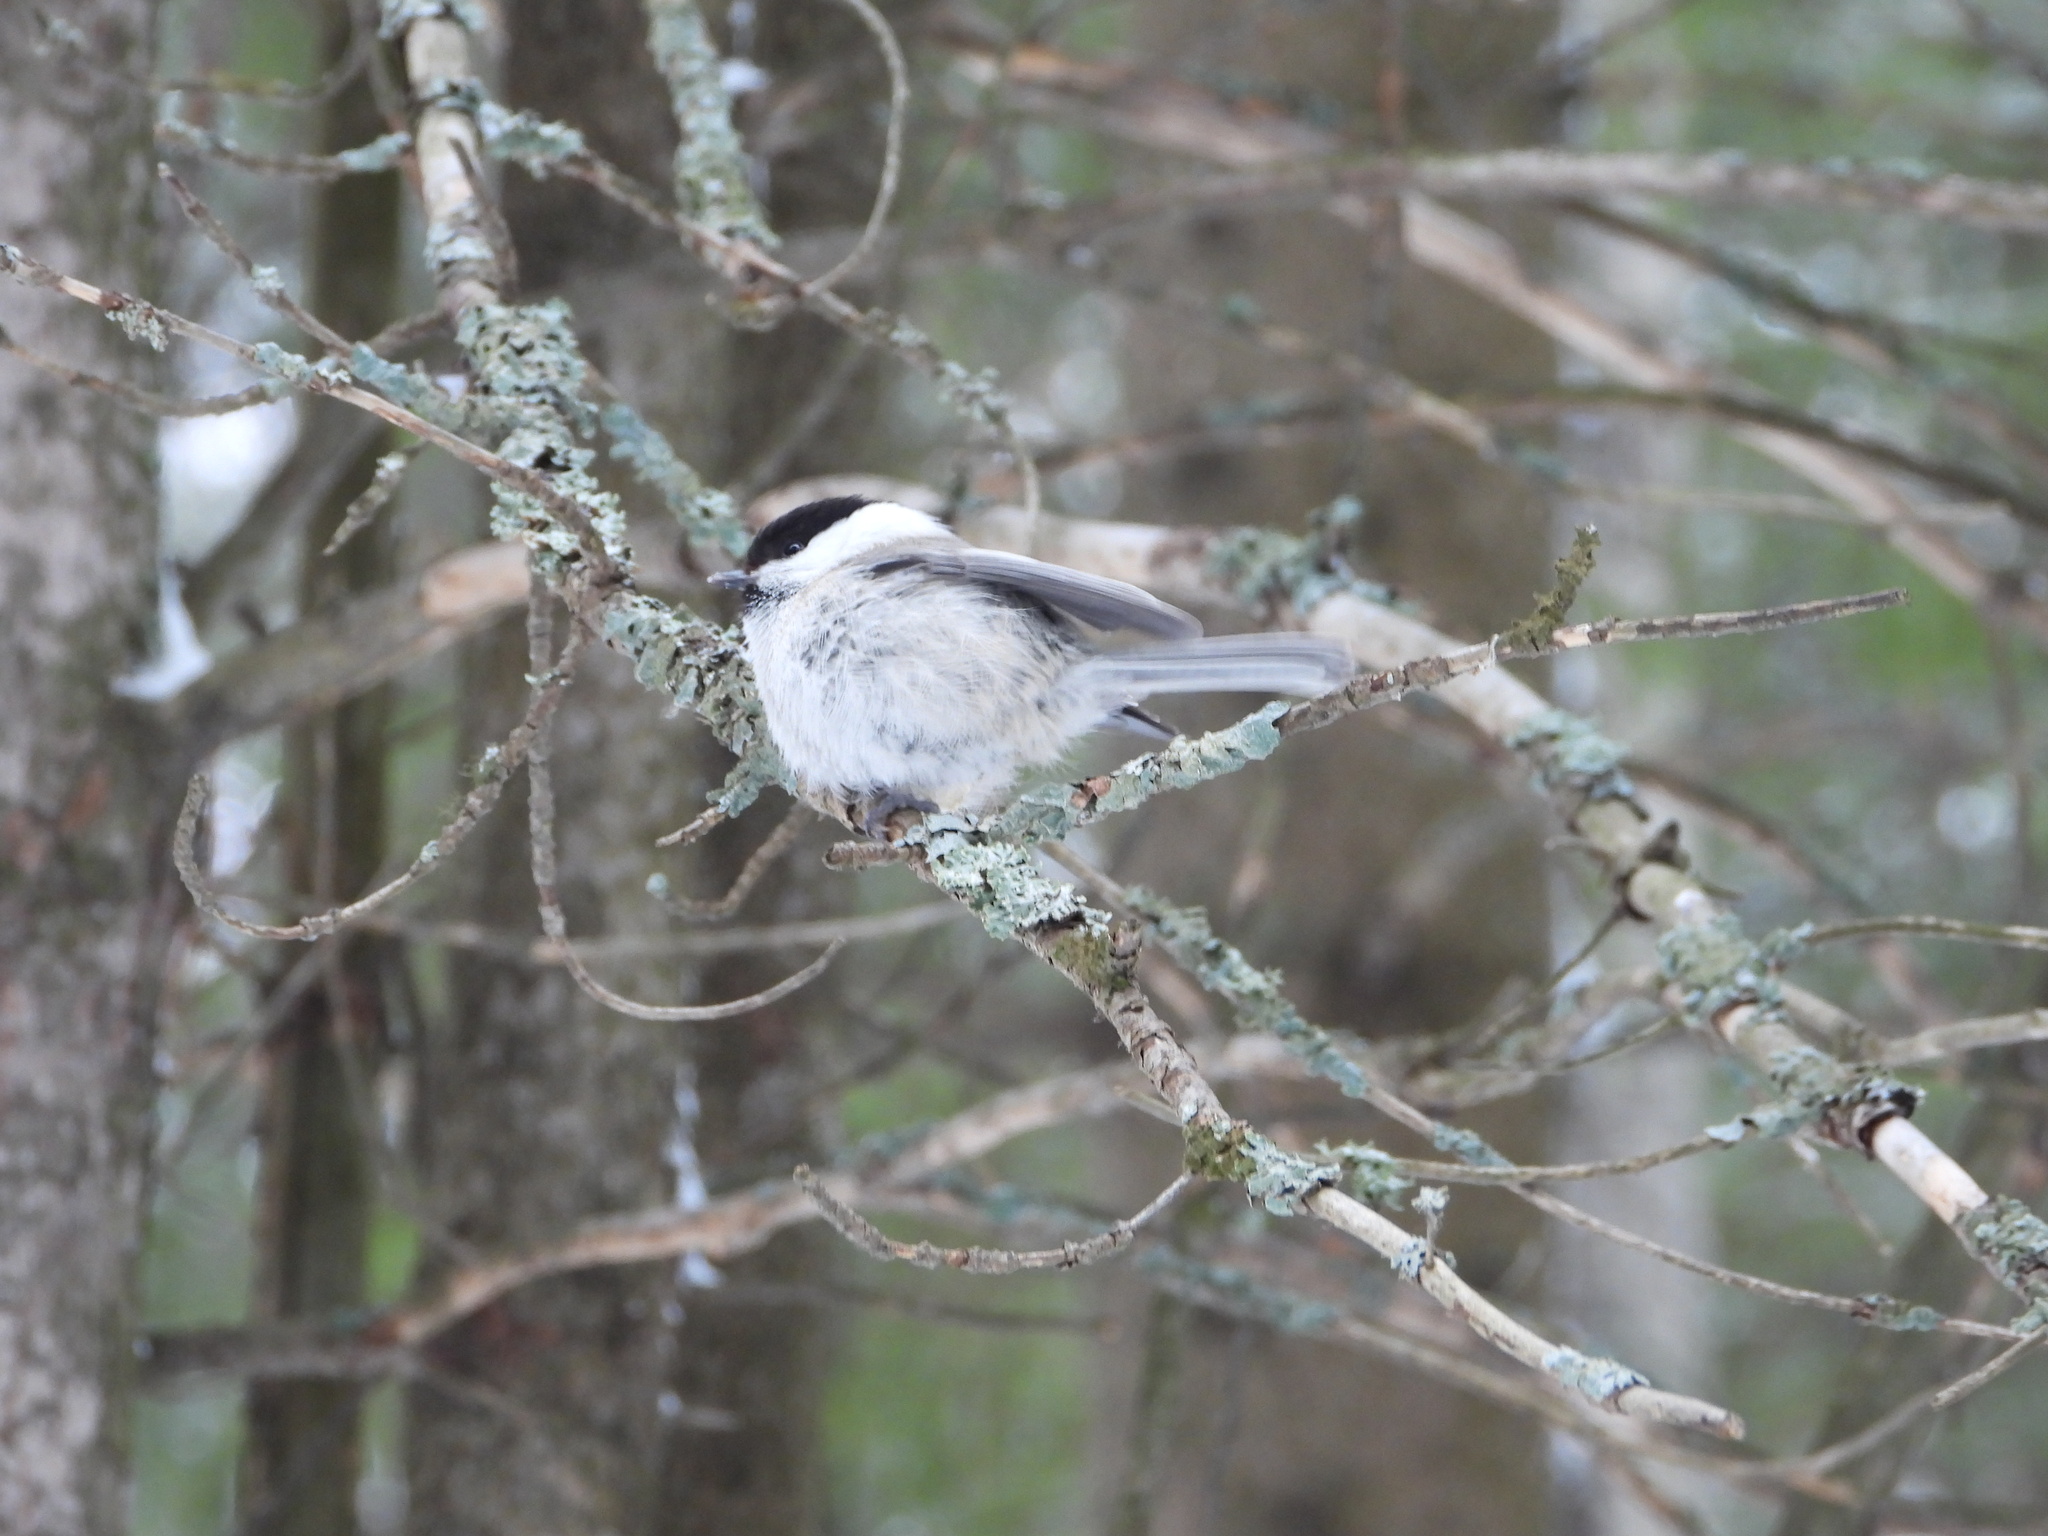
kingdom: Animalia
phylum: Chordata
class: Aves
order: Passeriformes
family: Paridae
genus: Poecile
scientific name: Poecile montanus
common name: Willow tit
